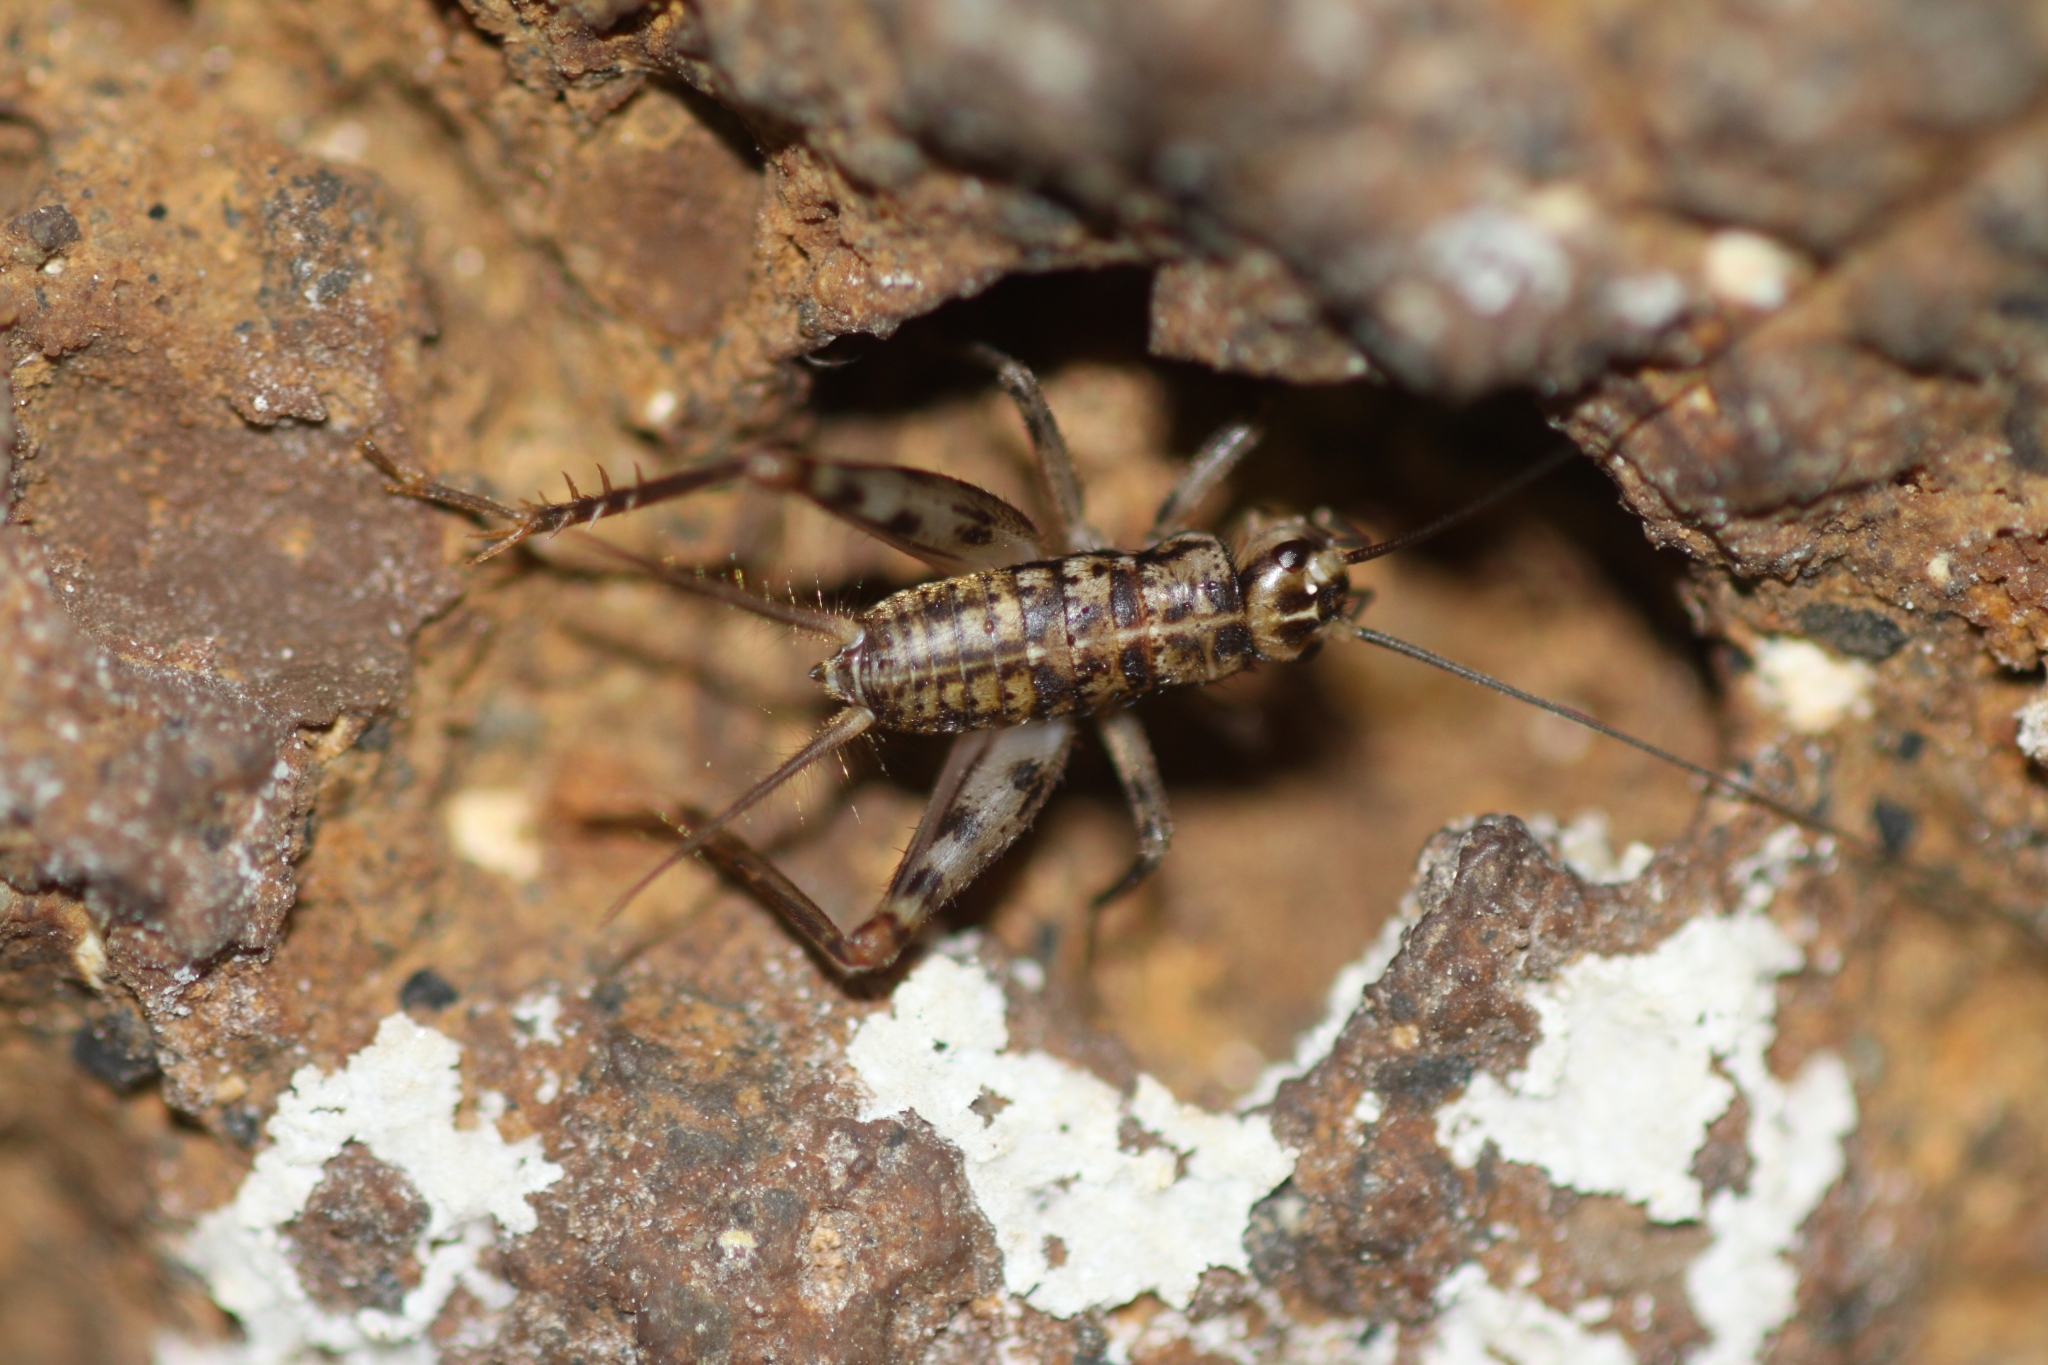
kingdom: Animalia
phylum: Arthropoda
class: Insecta
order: Orthoptera
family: Gryllidae
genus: Gryllomorpha
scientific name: Gryllomorpha dalmatina
